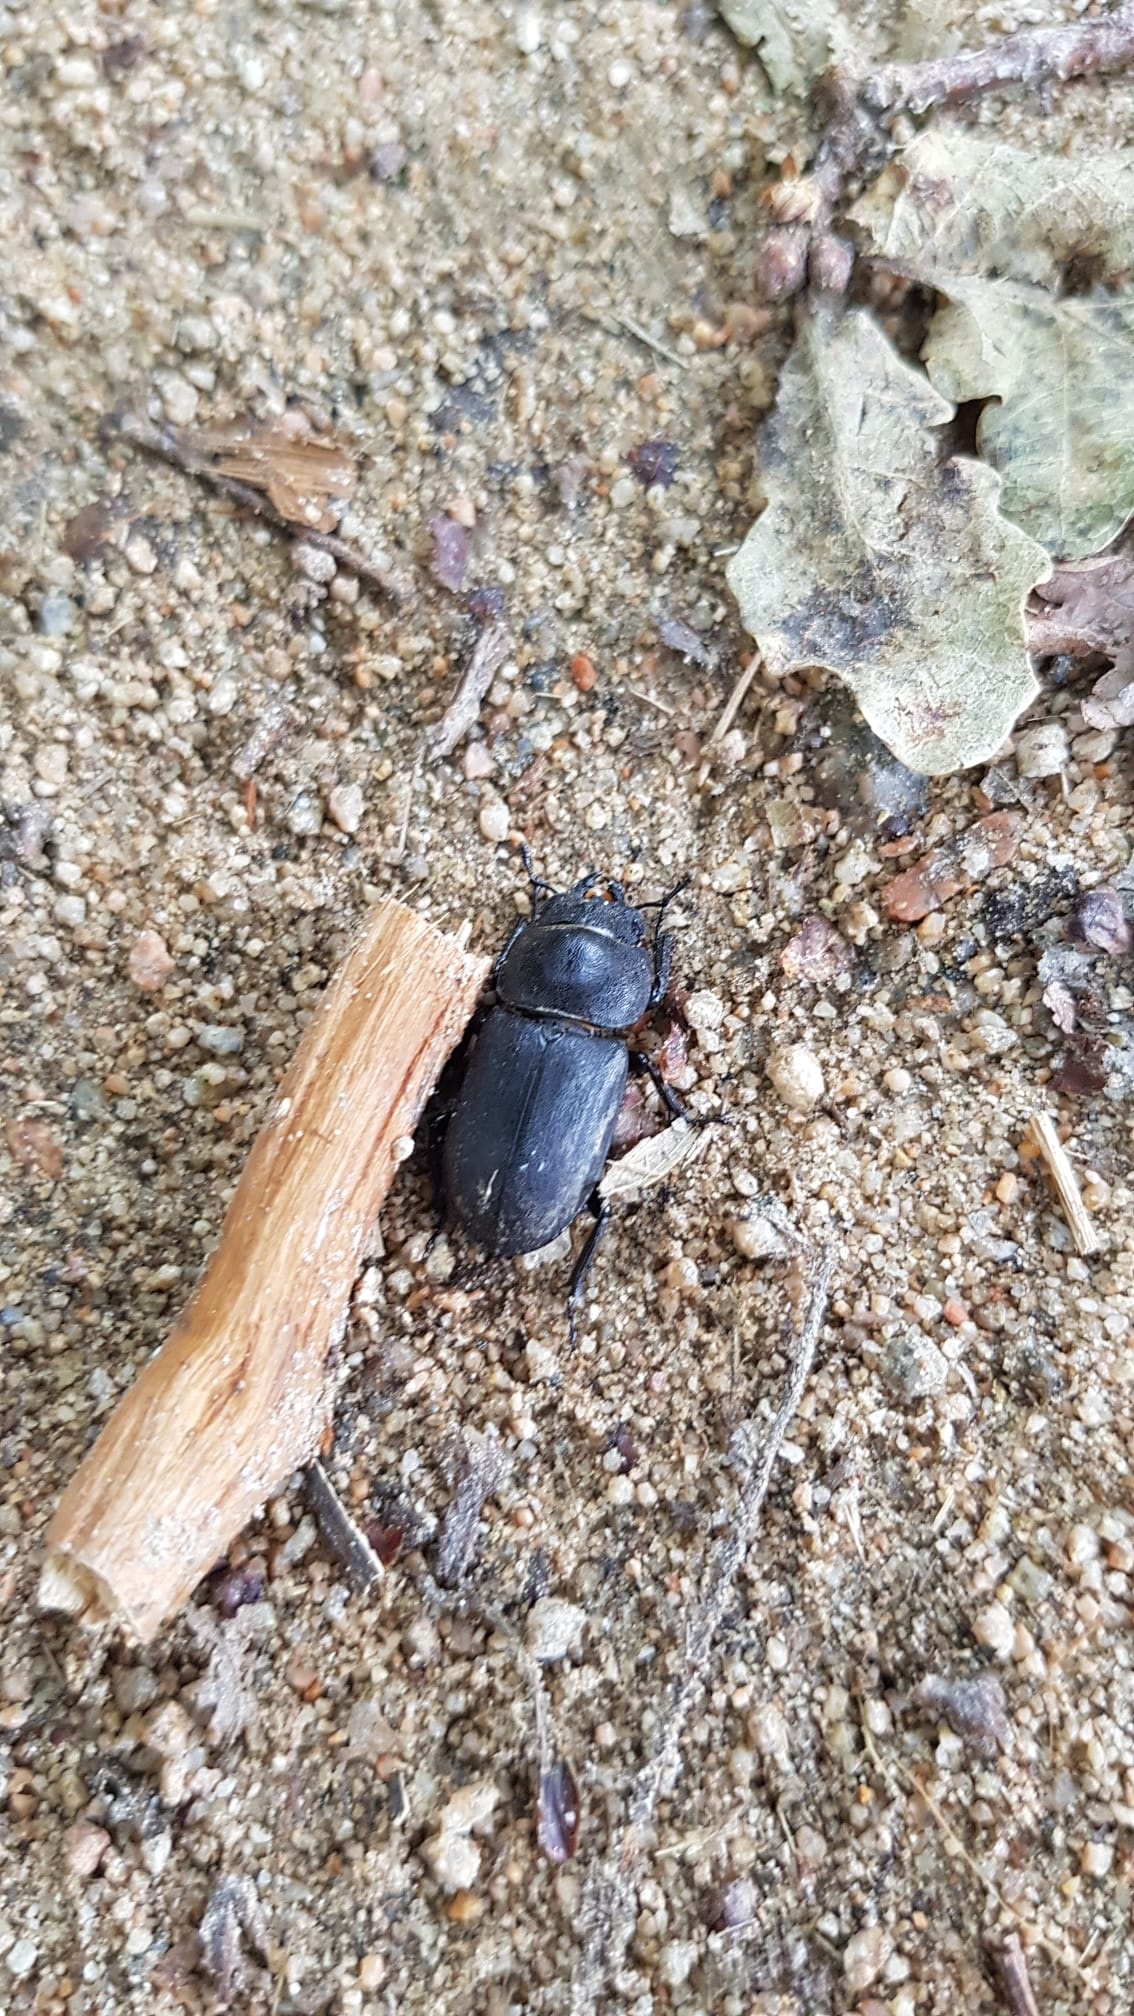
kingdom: Animalia
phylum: Arthropoda
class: Insecta
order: Coleoptera
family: Lucanidae
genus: Dorcus
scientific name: Dorcus parallelipipedus
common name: Lesser stag beetle
